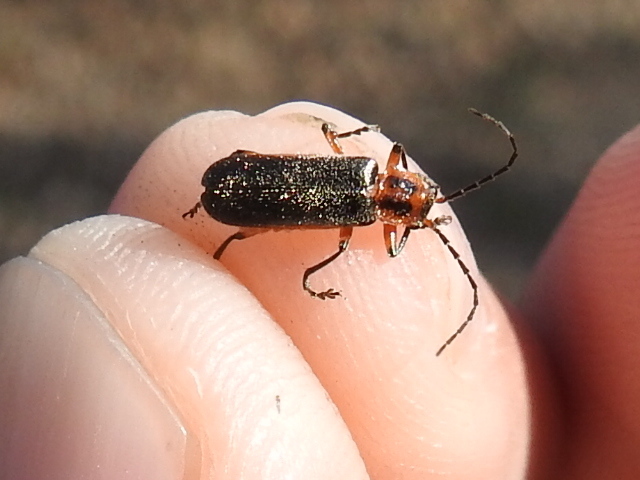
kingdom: Animalia
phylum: Arthropoda
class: Insecta
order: Coleoptera
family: Cantharidae
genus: Atalantycha
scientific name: Atalantycha bilineata
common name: Two-lined leatherwing
